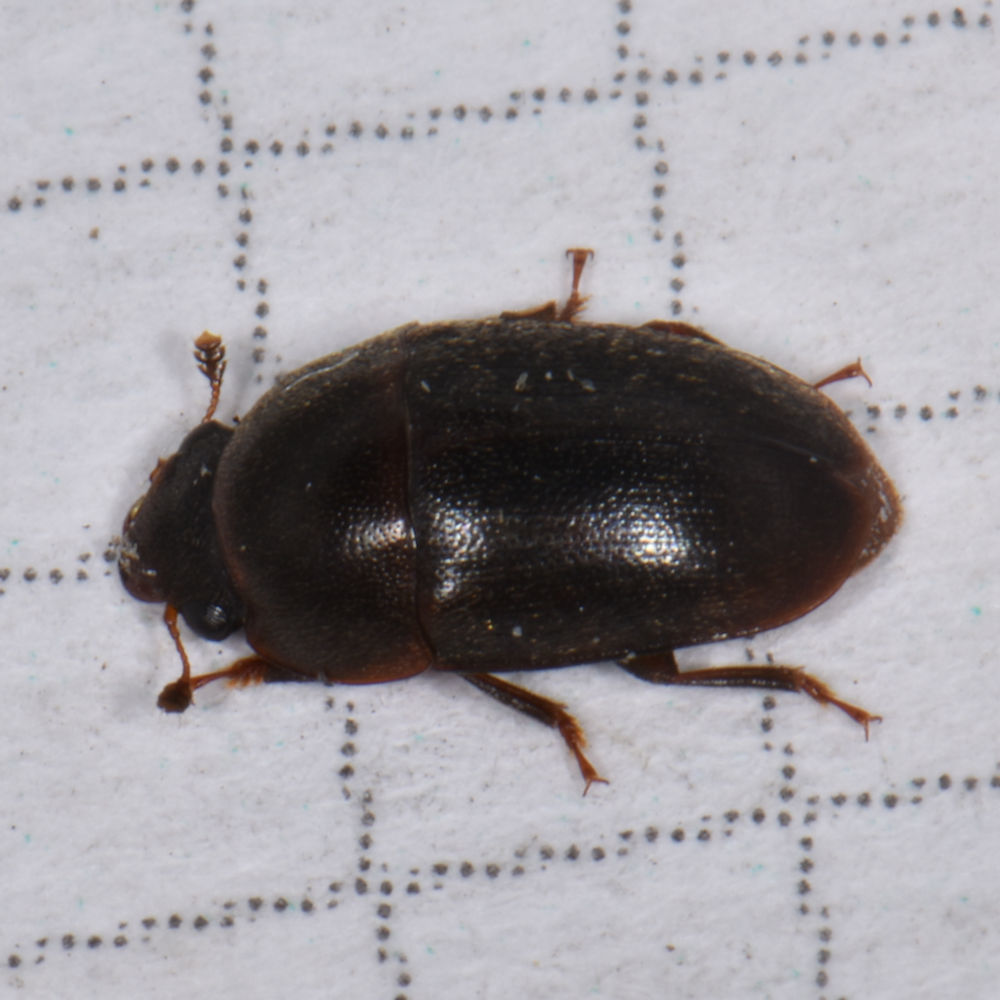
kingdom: Animalia
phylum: Arthropoda
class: Insecta
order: Coleoptera
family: Nitidulidae
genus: Cryptarcha
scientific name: Cryptarcha ampla
